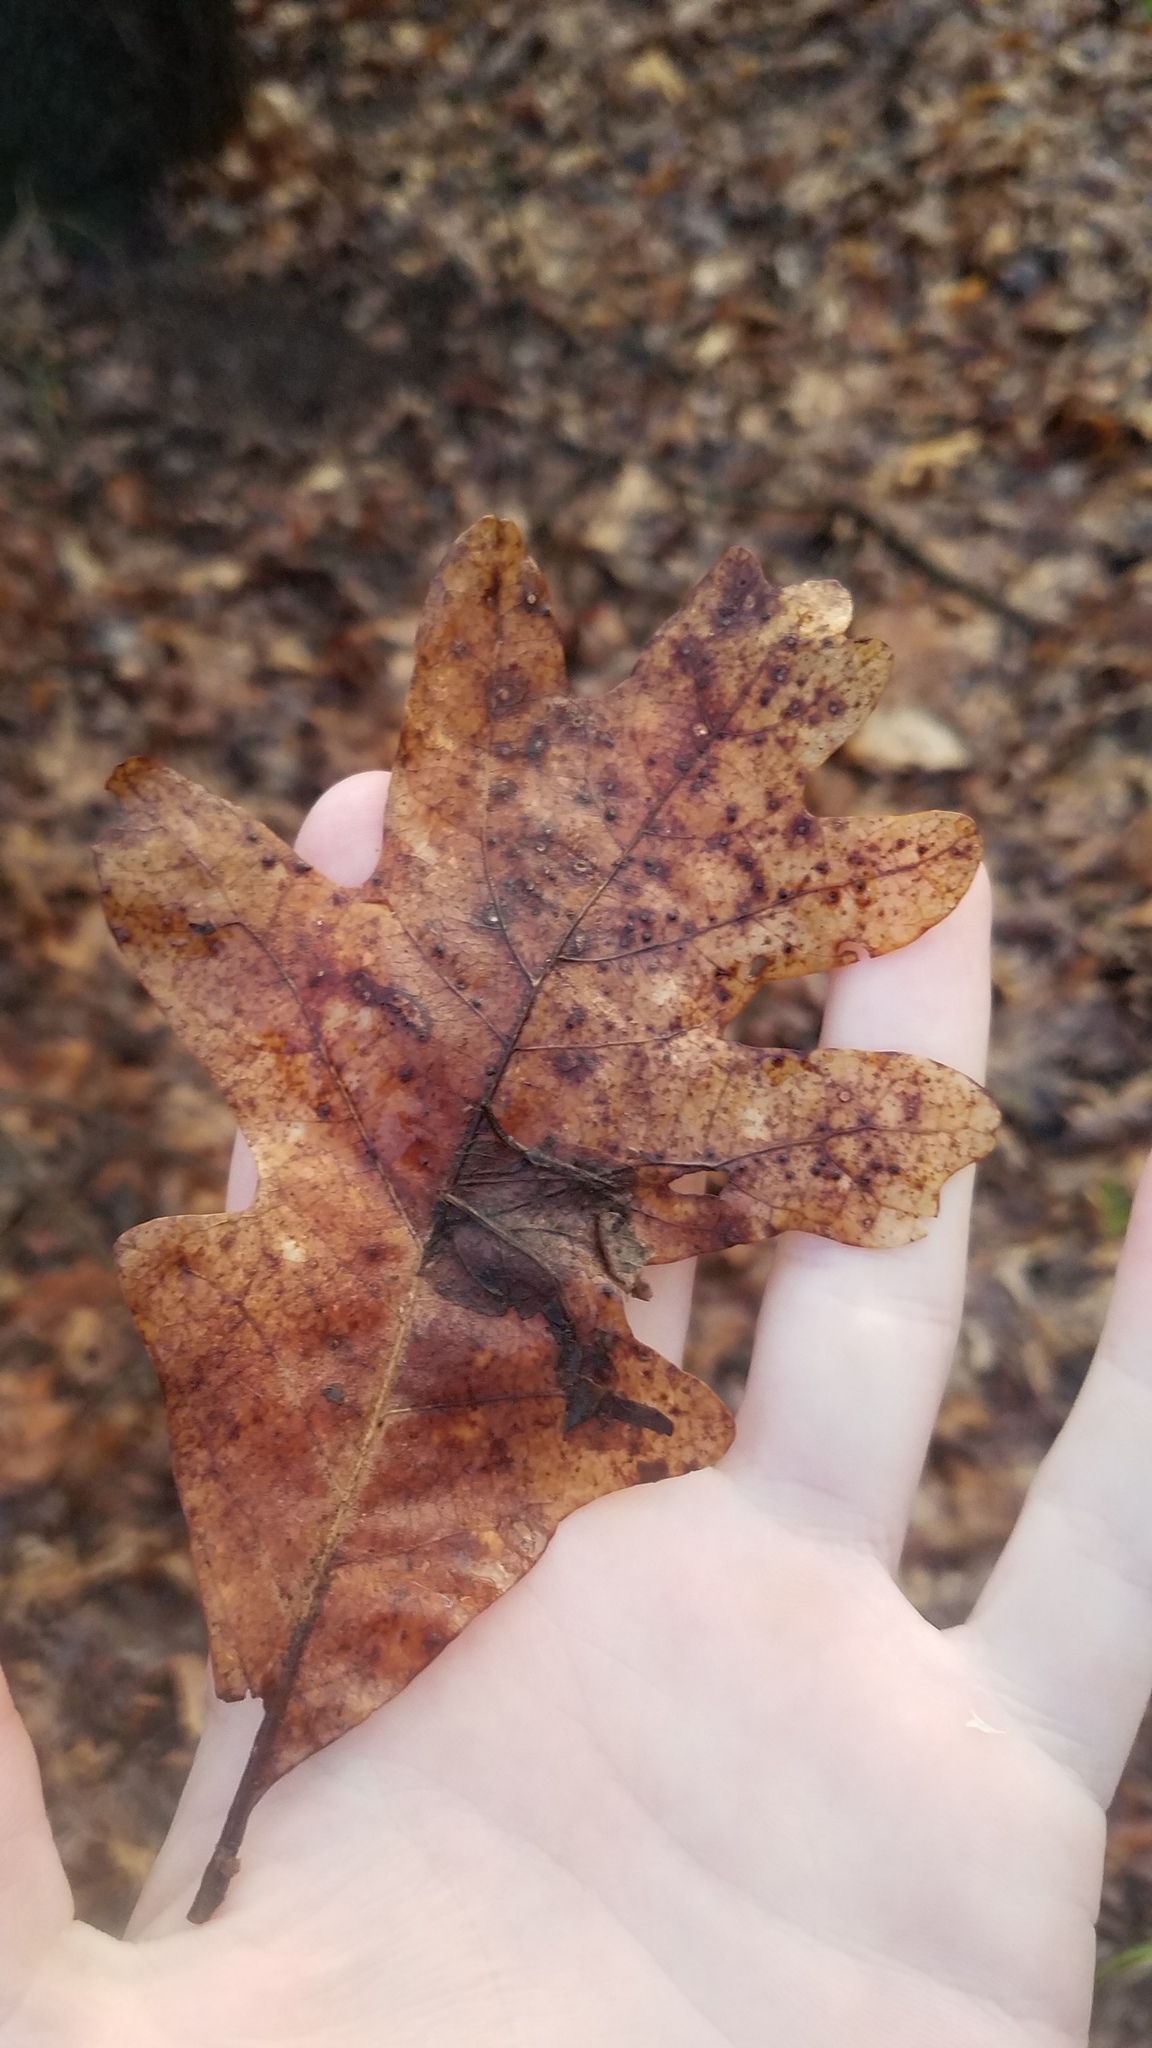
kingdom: Plantae
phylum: Tracheophyta
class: Magnoliopsida
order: Fagales
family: Fagaceae
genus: Quercus
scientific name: Quercus alba
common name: White oak
